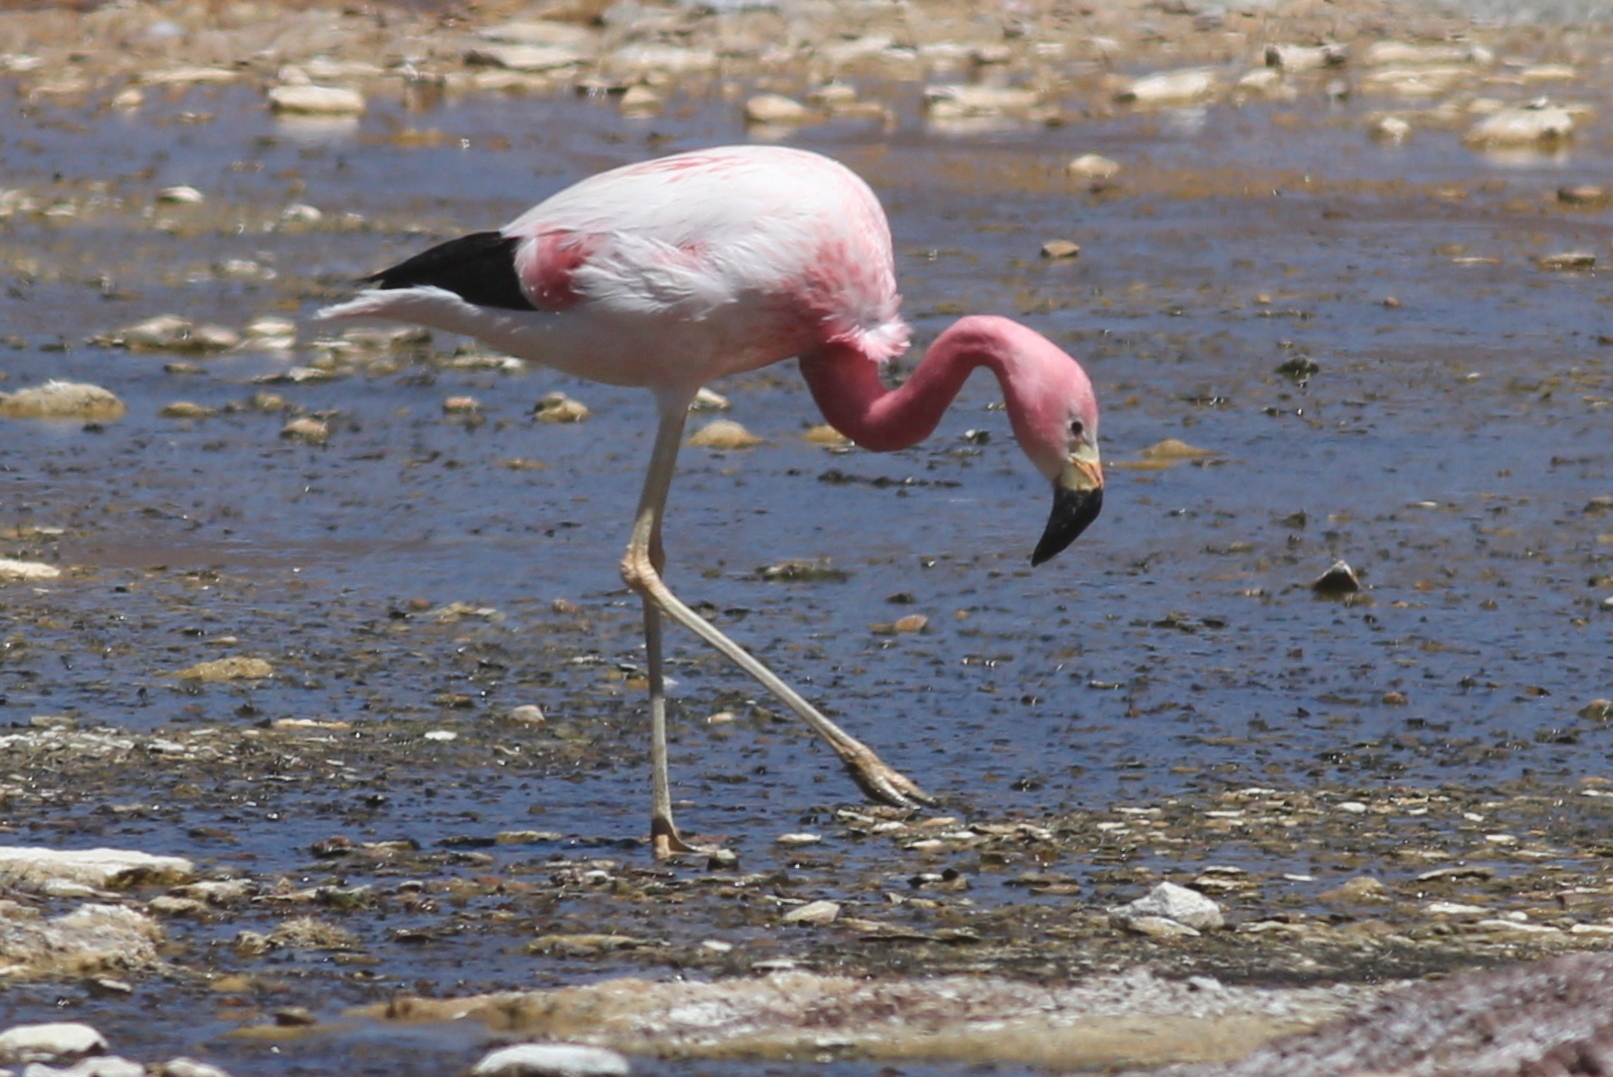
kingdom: Animalia
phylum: Chordata
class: Aves
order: Phoenicopteriformes
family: Phoenicopteridae
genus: Phoenicoparrus
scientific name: Phoenicoparrus andinus
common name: Andean flamingo
